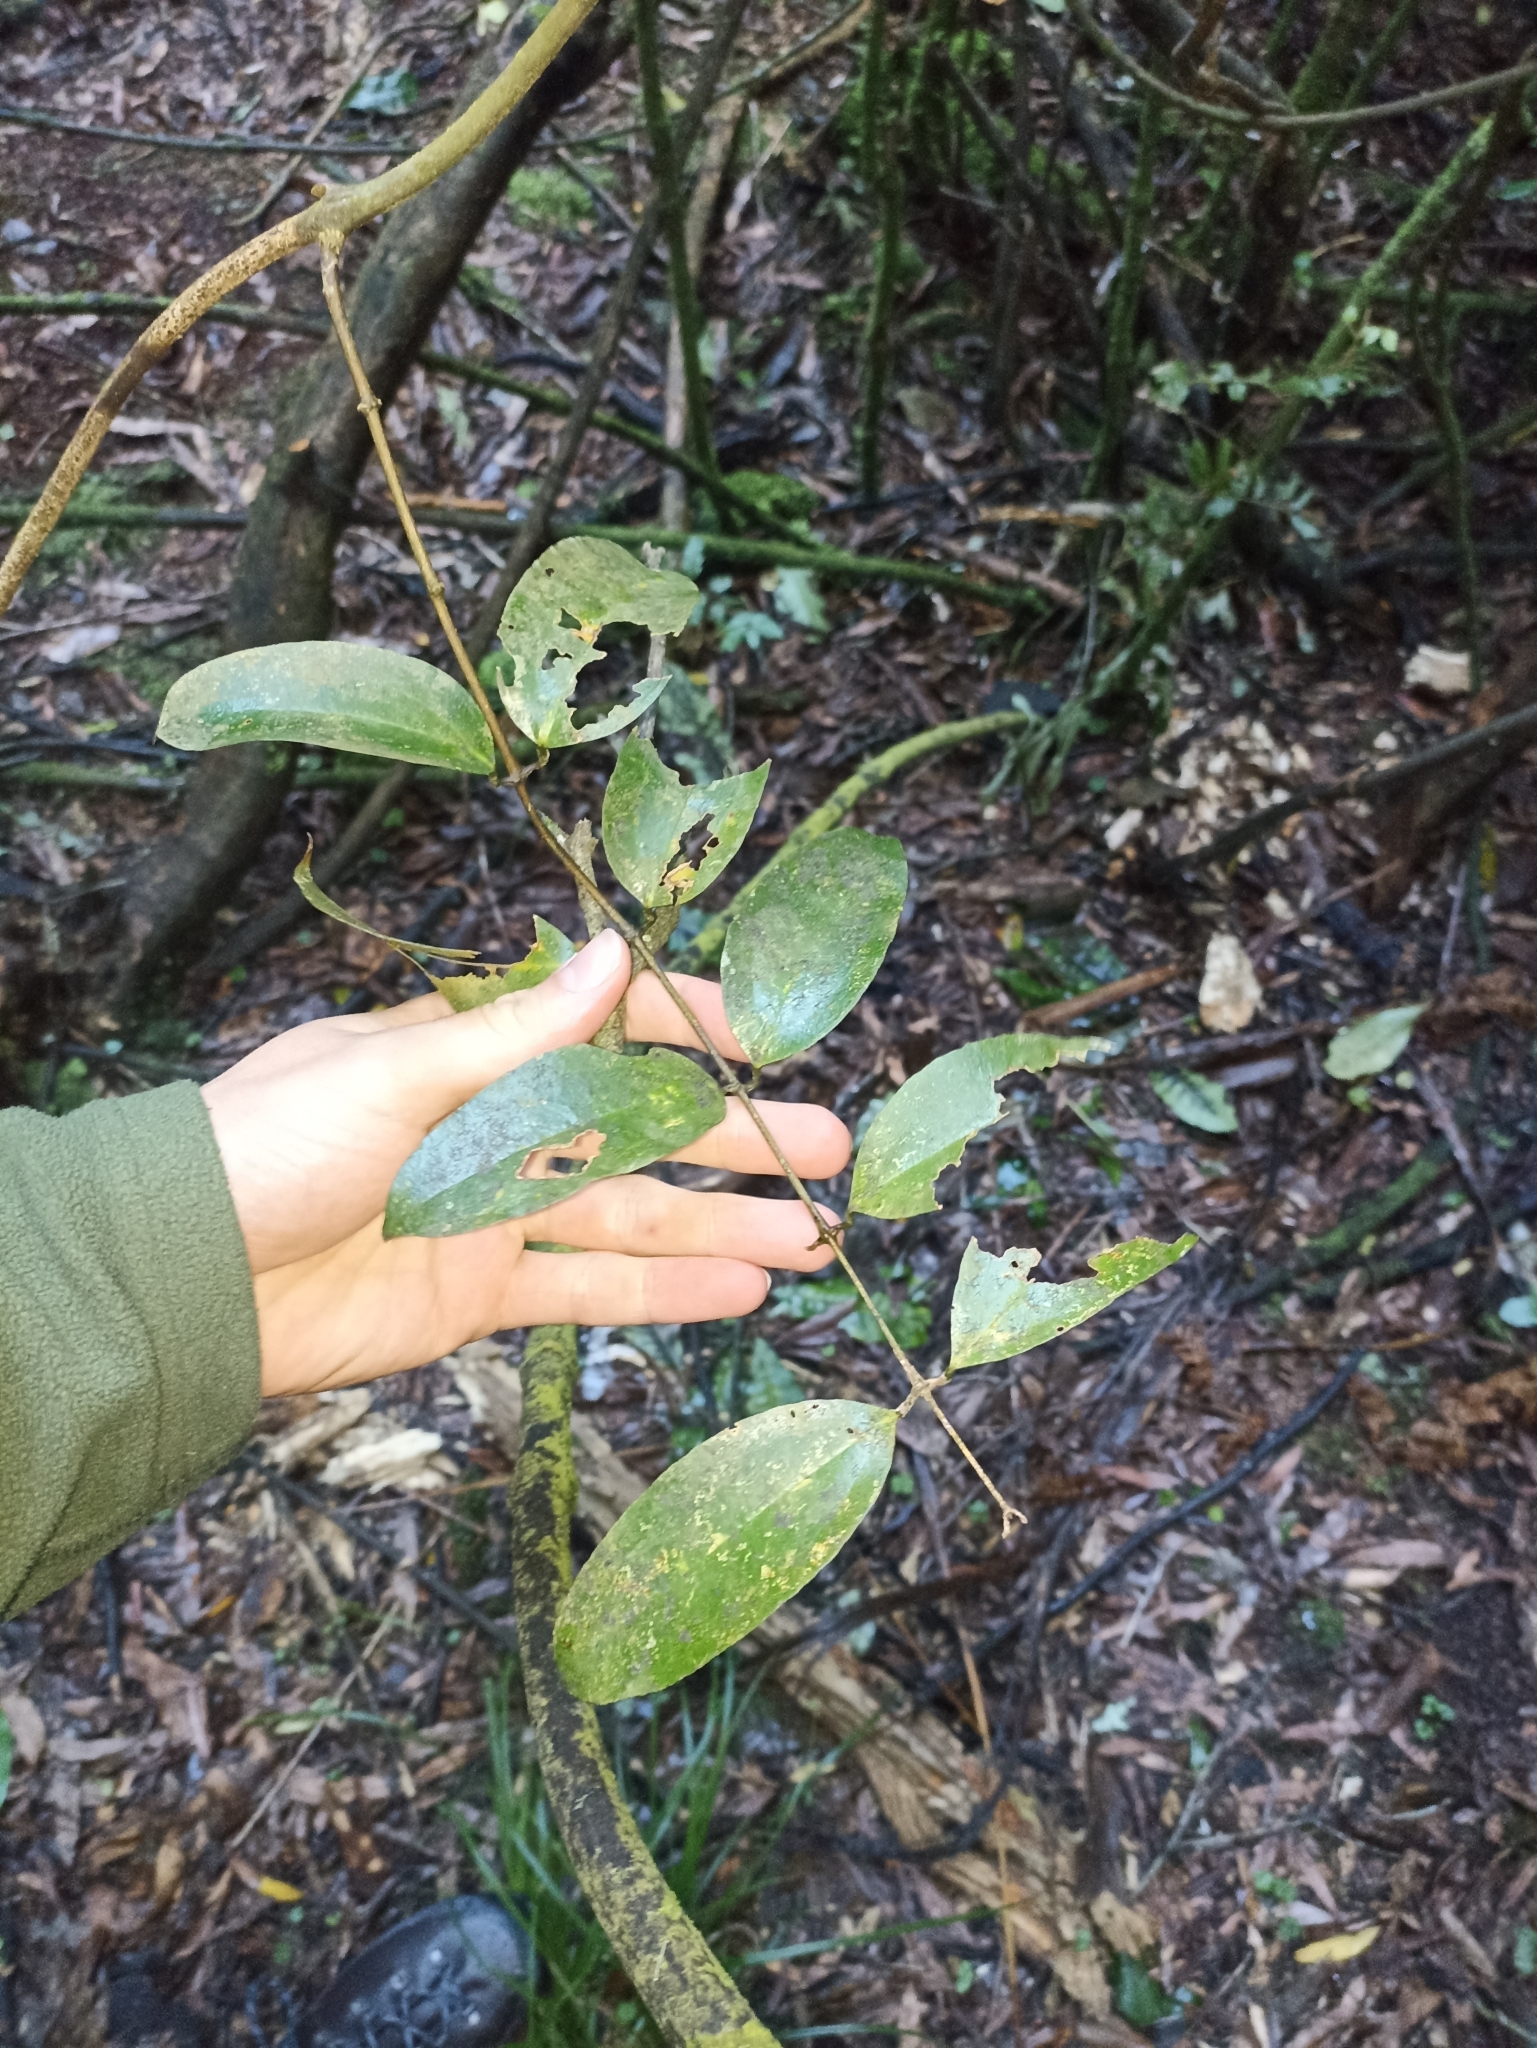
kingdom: Plantae
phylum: Tracheophyta
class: Liliopsida
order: Liliales
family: Ripogonaceae
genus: Ripogonum
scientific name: Ripogonum scandens
